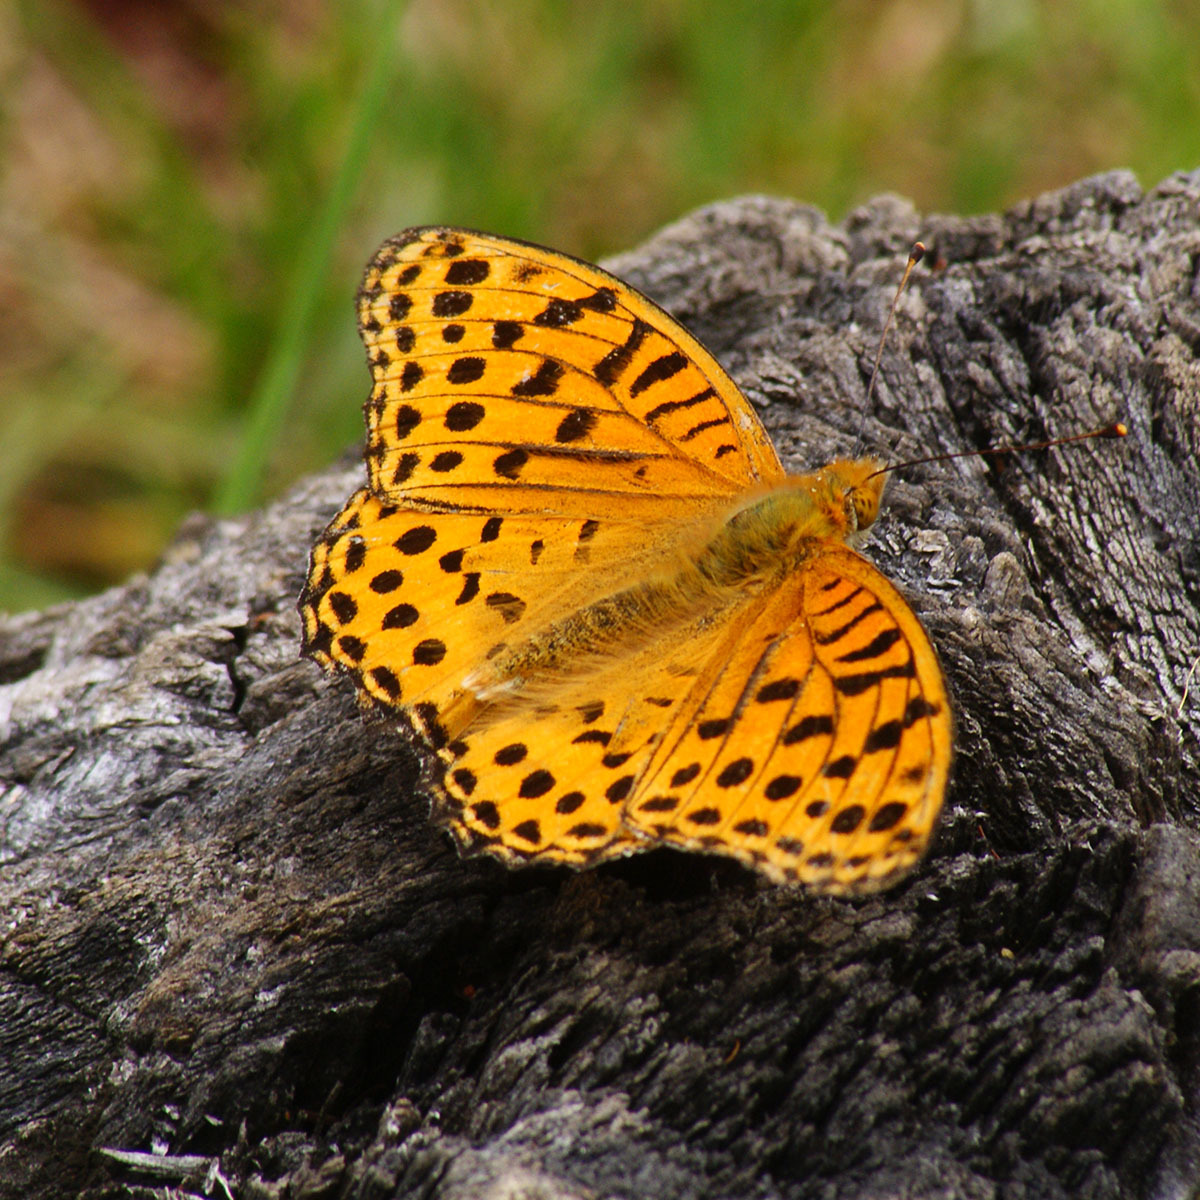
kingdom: Animalia
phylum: Arthropoda
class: Insecta
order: Lepidoptera
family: Nymphalidae
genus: Argyreus
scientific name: Argyreus hyperbius
